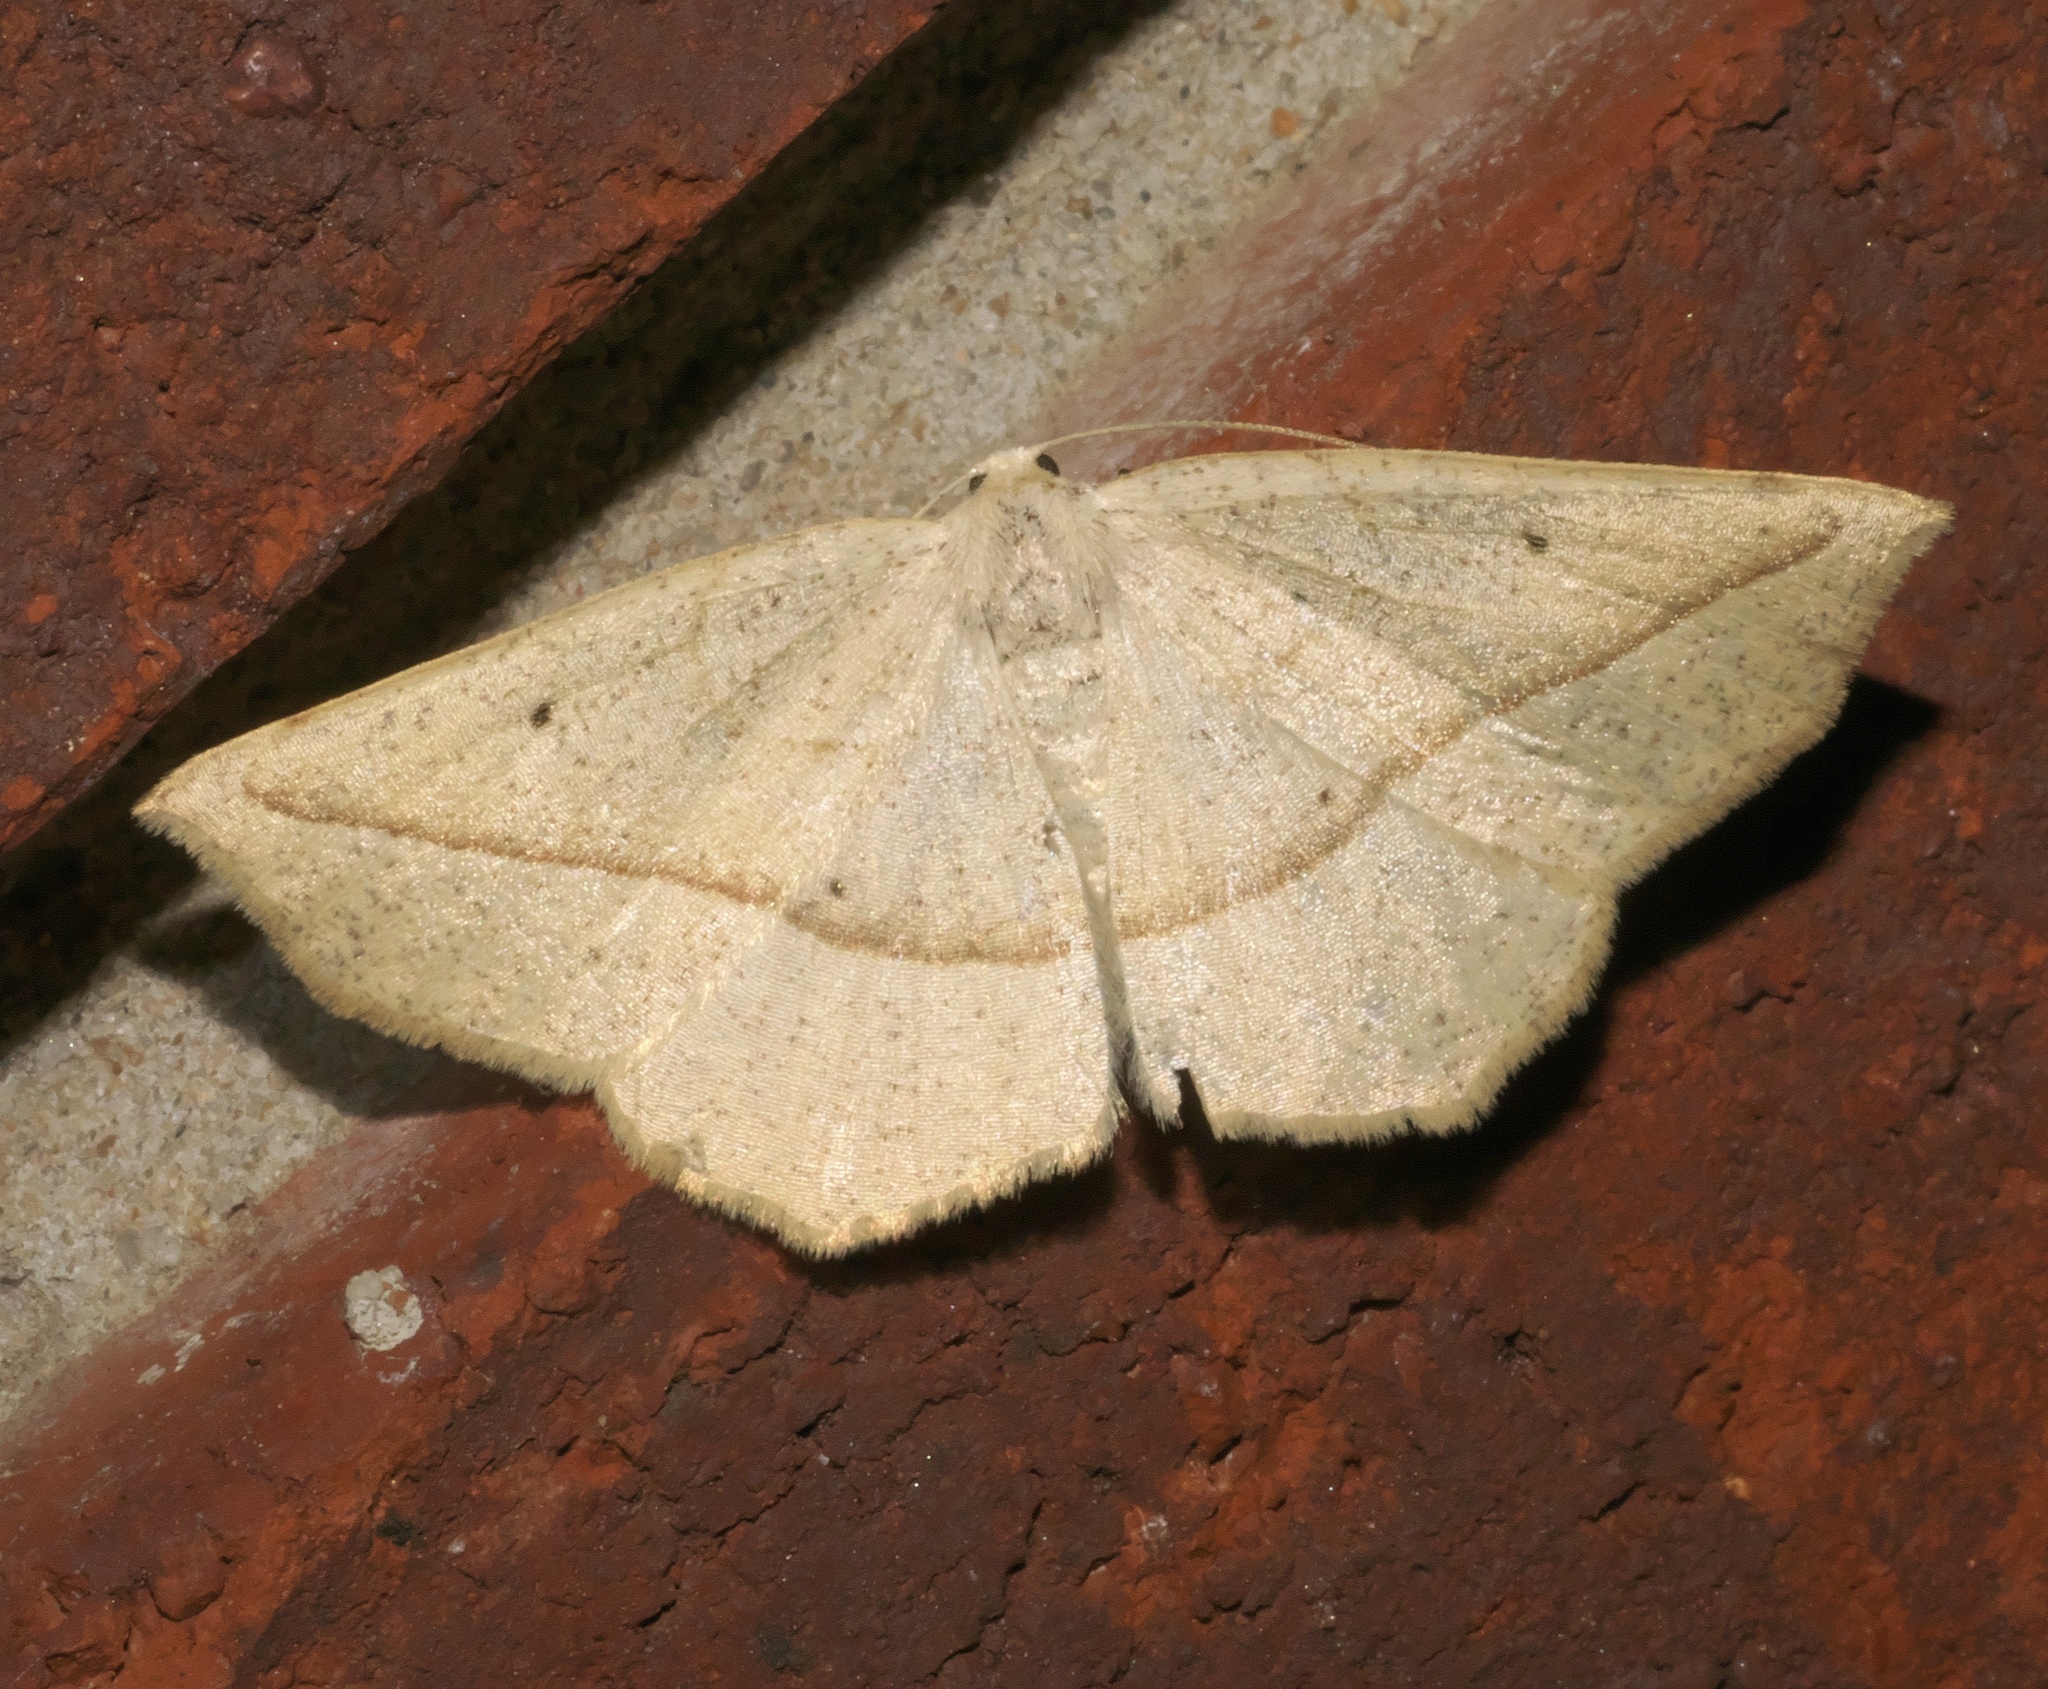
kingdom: Animalia
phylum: Arthropoda
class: Insecta
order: Lepidoptera
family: Geometridae
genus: Eusarca
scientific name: Eusarca confusaria
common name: Confused eusarca
